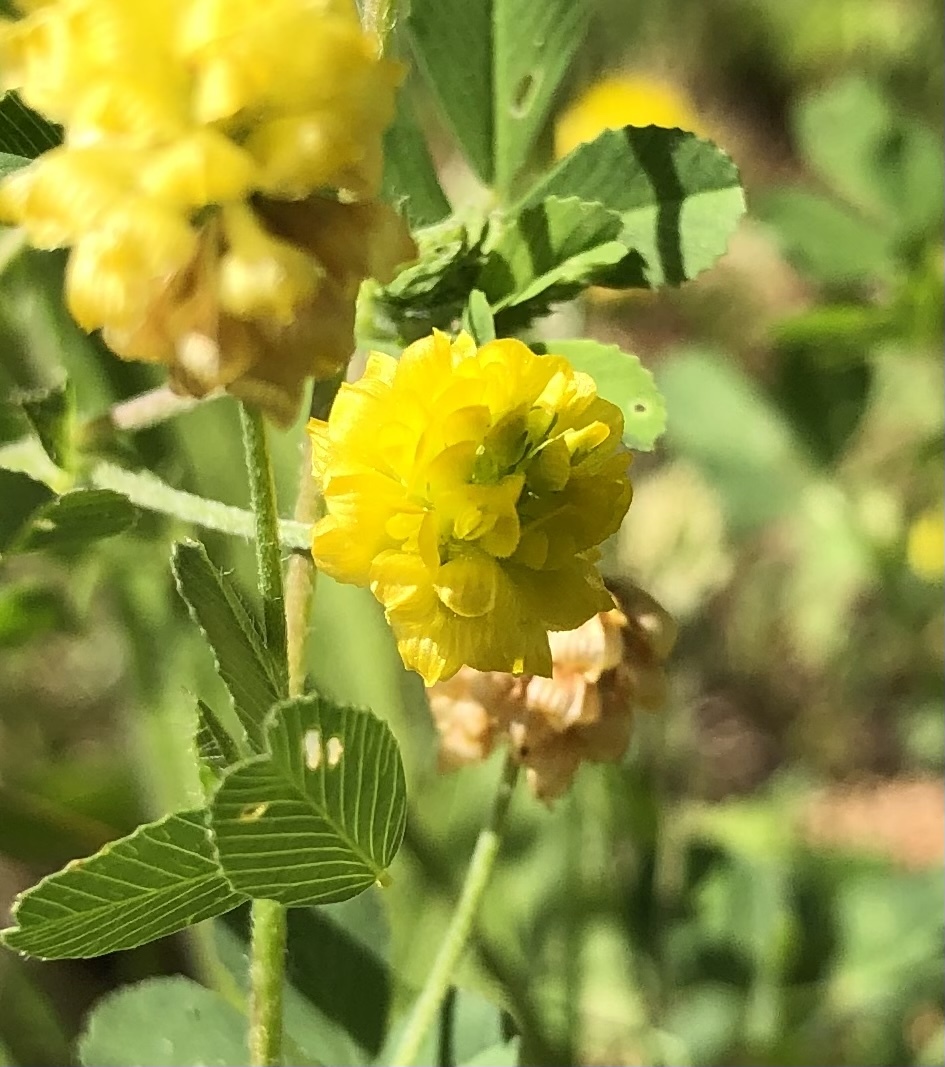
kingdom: Plantae
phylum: Tracheophyta
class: Magnoliopsida
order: Fabales
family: Fabaceae
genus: Trifolium
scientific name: Trifolium campestre
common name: Field clover
